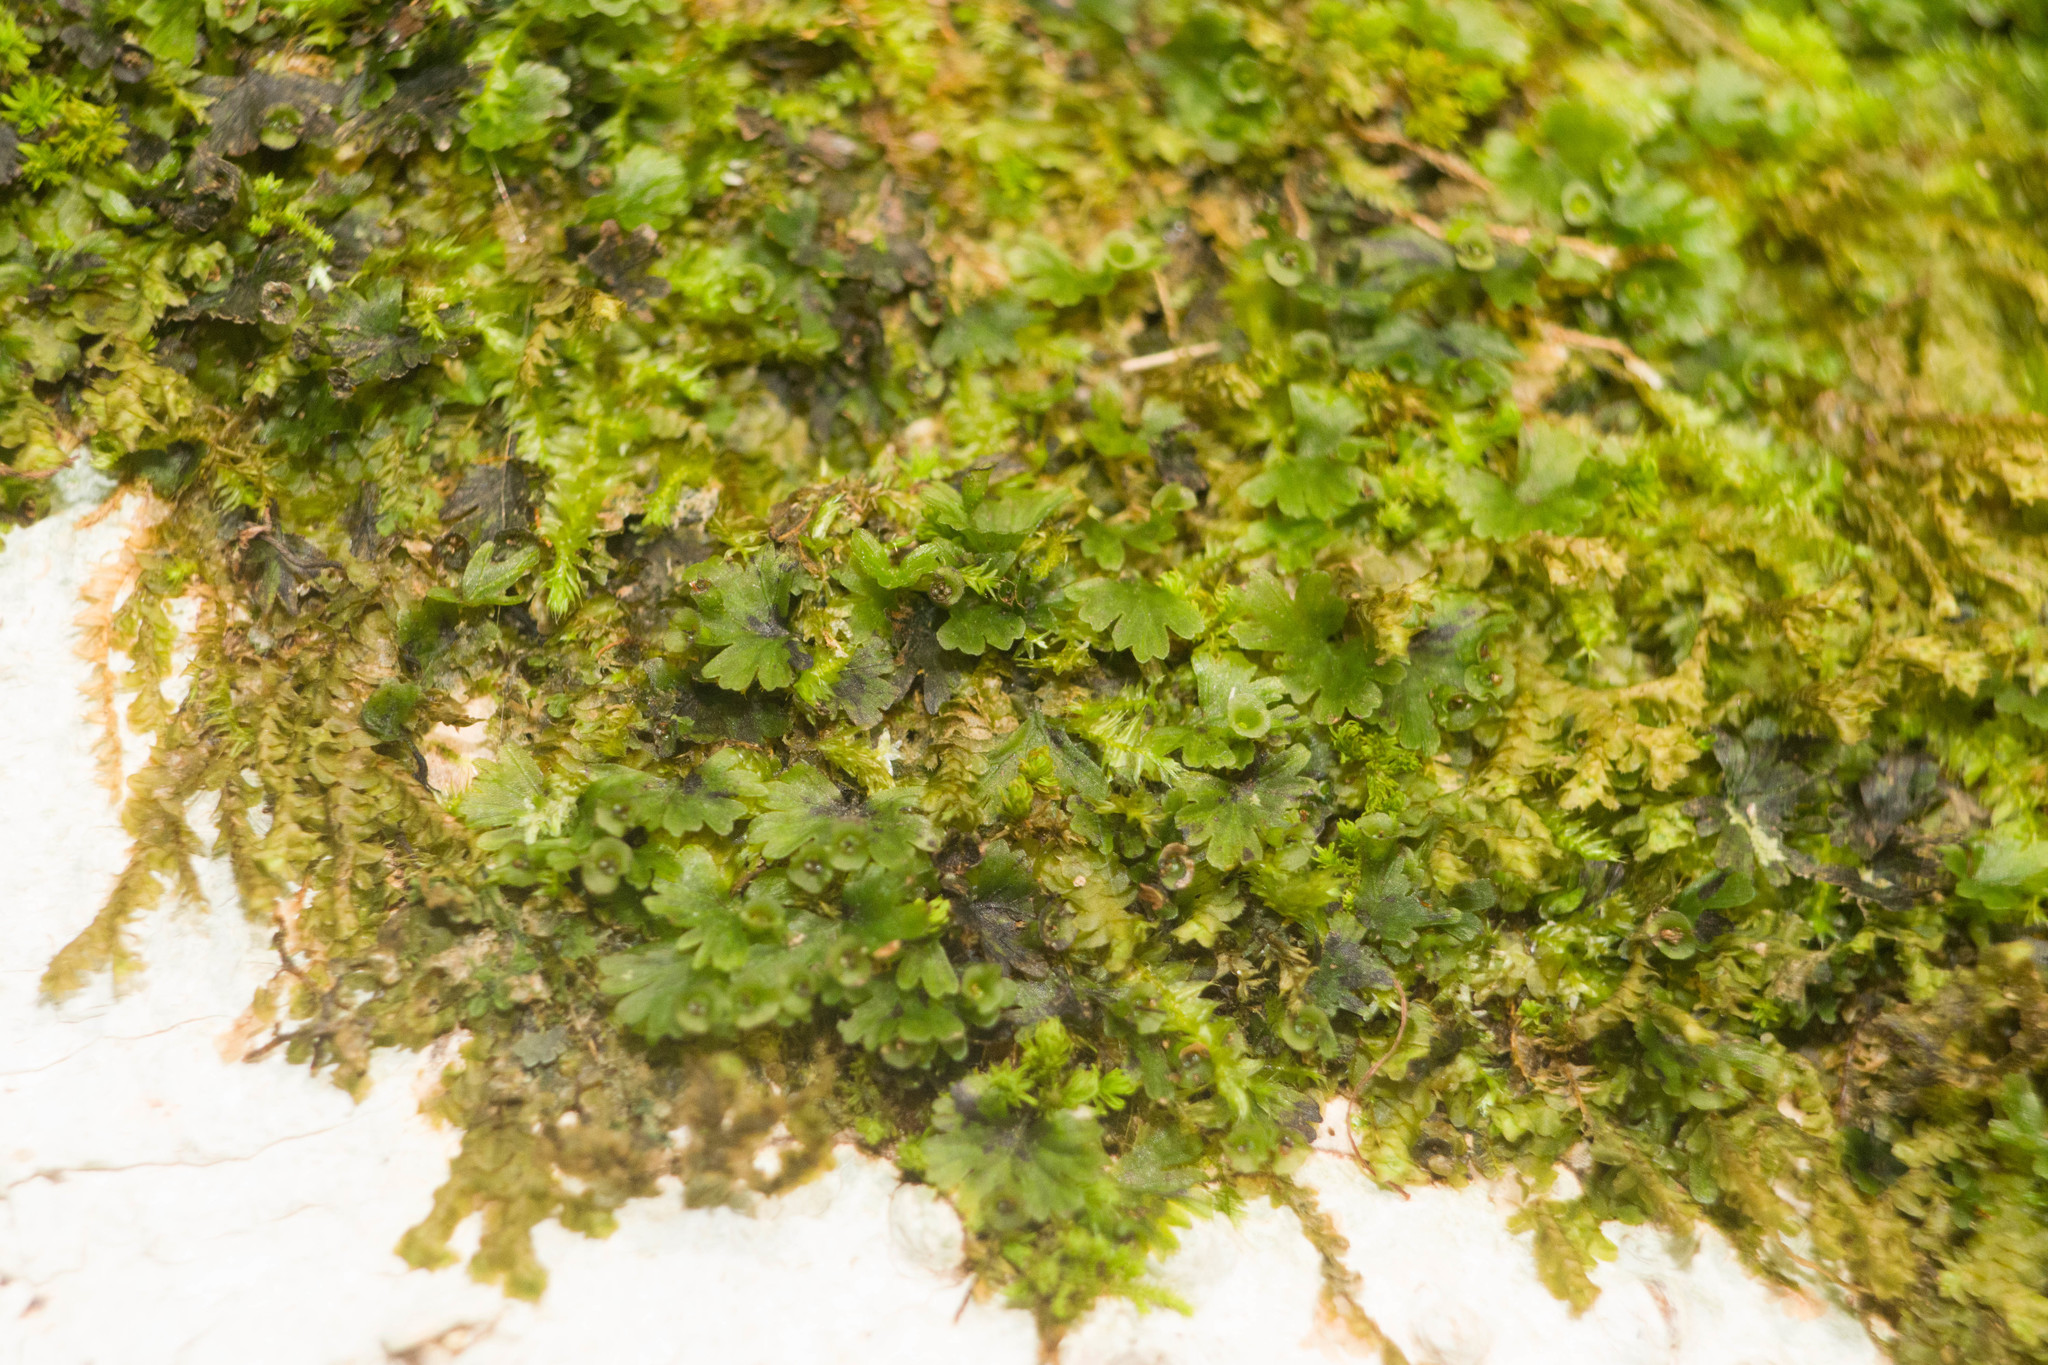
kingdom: Plantae
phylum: Tracheophyta
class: Polypodiopsida
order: Hymenophyllales
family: Hymenophyllaceae
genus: Crepidomanes
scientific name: Crepidomanes parvulum
